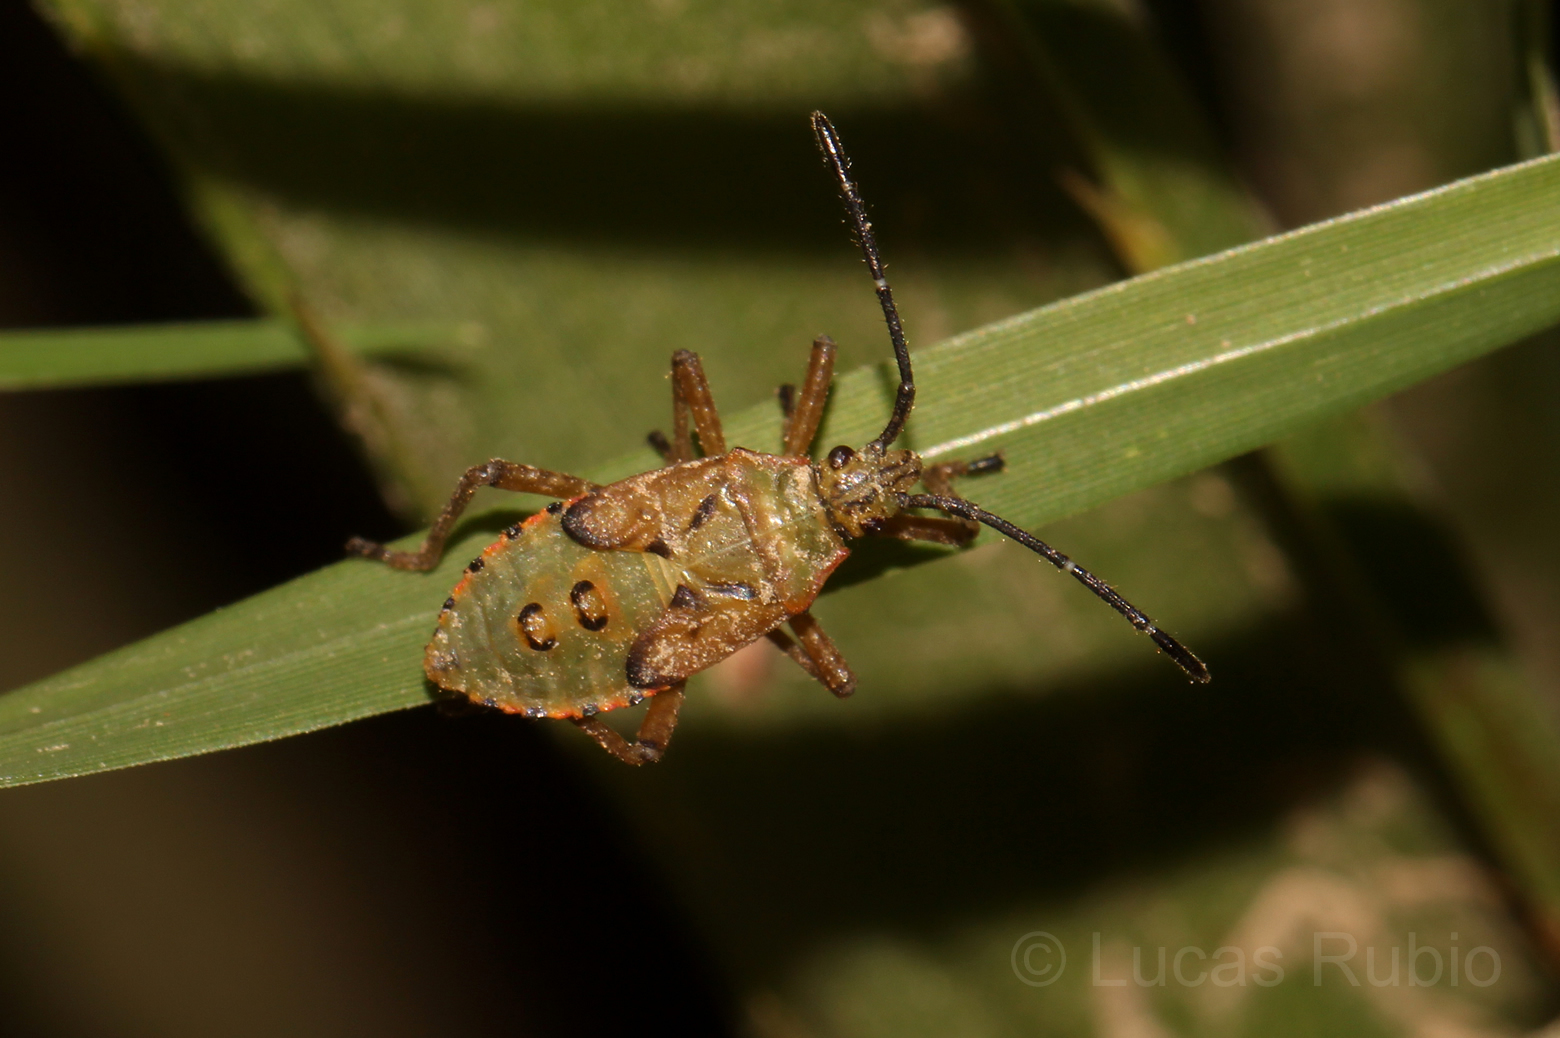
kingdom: Animalia
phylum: Arthropoda
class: Insecta
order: Hemiptera
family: Coreidae
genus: Acidomeria
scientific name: Acidomeria cincticornis
